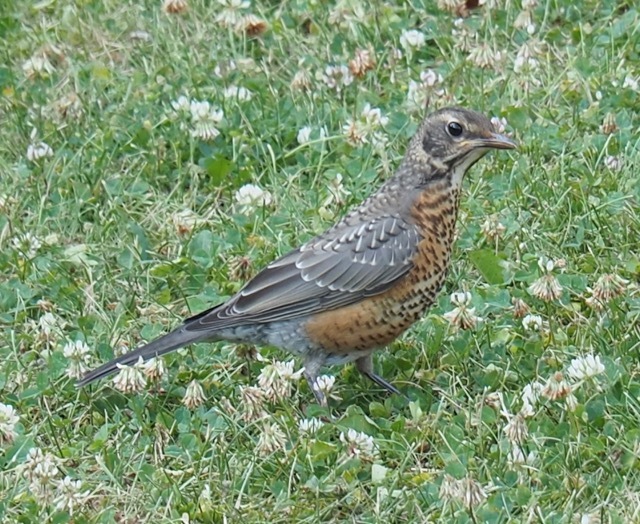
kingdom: Animalia
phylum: Chordata
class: Aves
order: Passeriformes
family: Turdidae
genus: Turdus
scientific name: Turdus migratorius
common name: American robin
